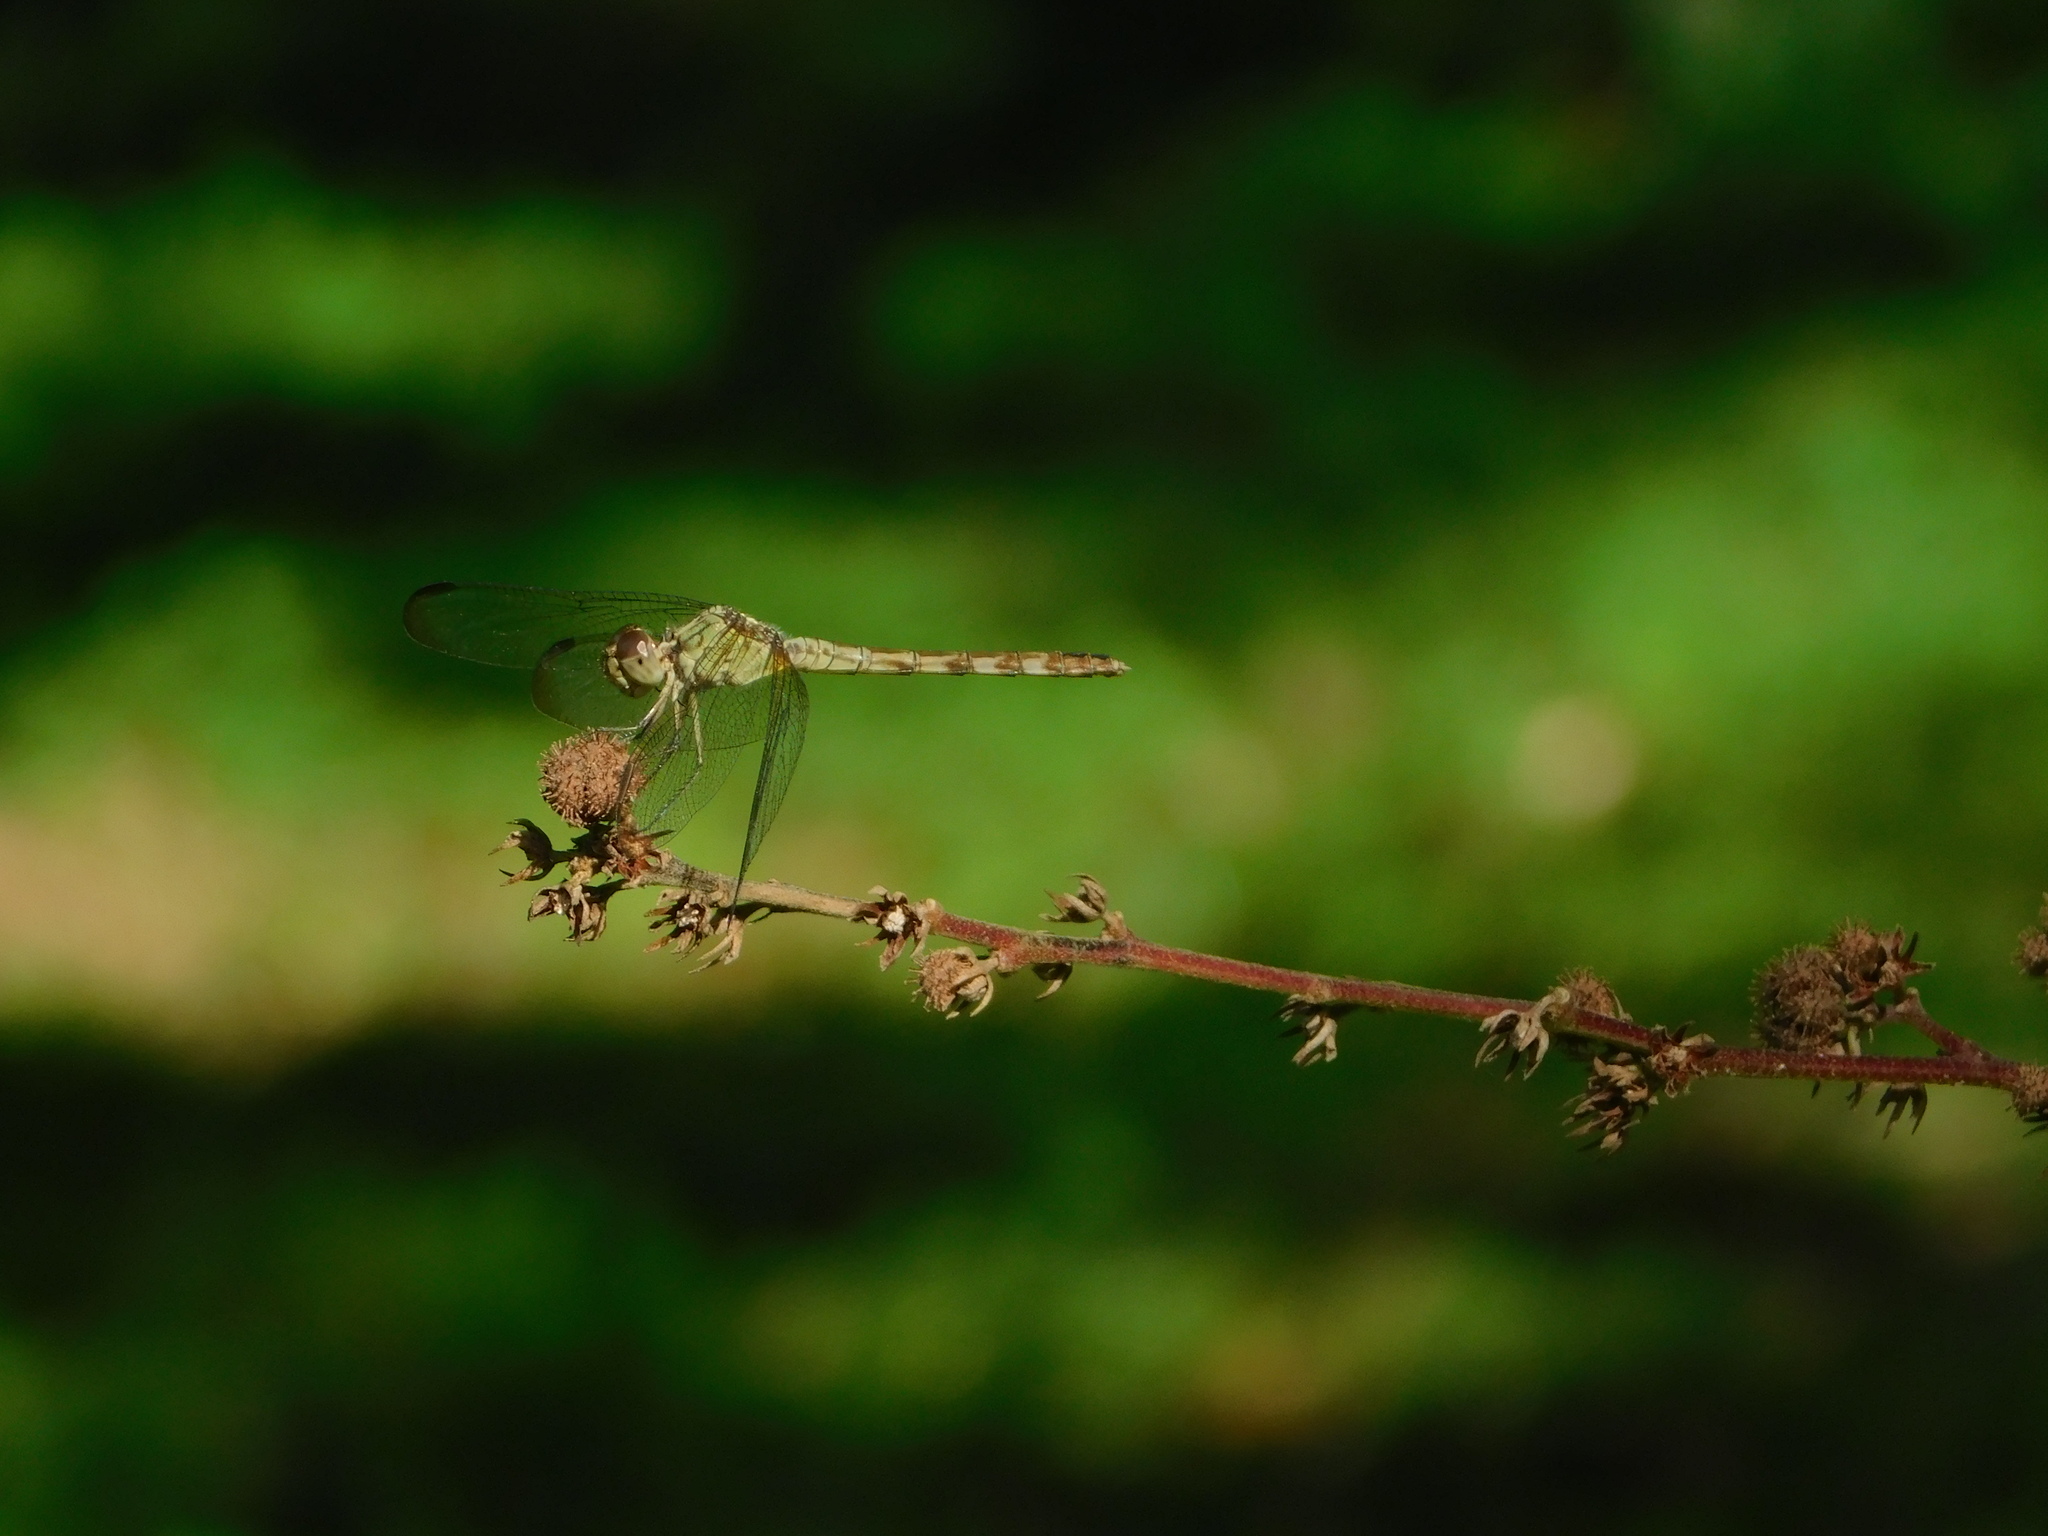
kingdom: Animalia
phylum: Arthropoda
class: Insecta
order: Odonata
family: Libellulidae
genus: Erythrodiplax
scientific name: Erythrodiplax umbrata
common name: Band-winged dragonlet
